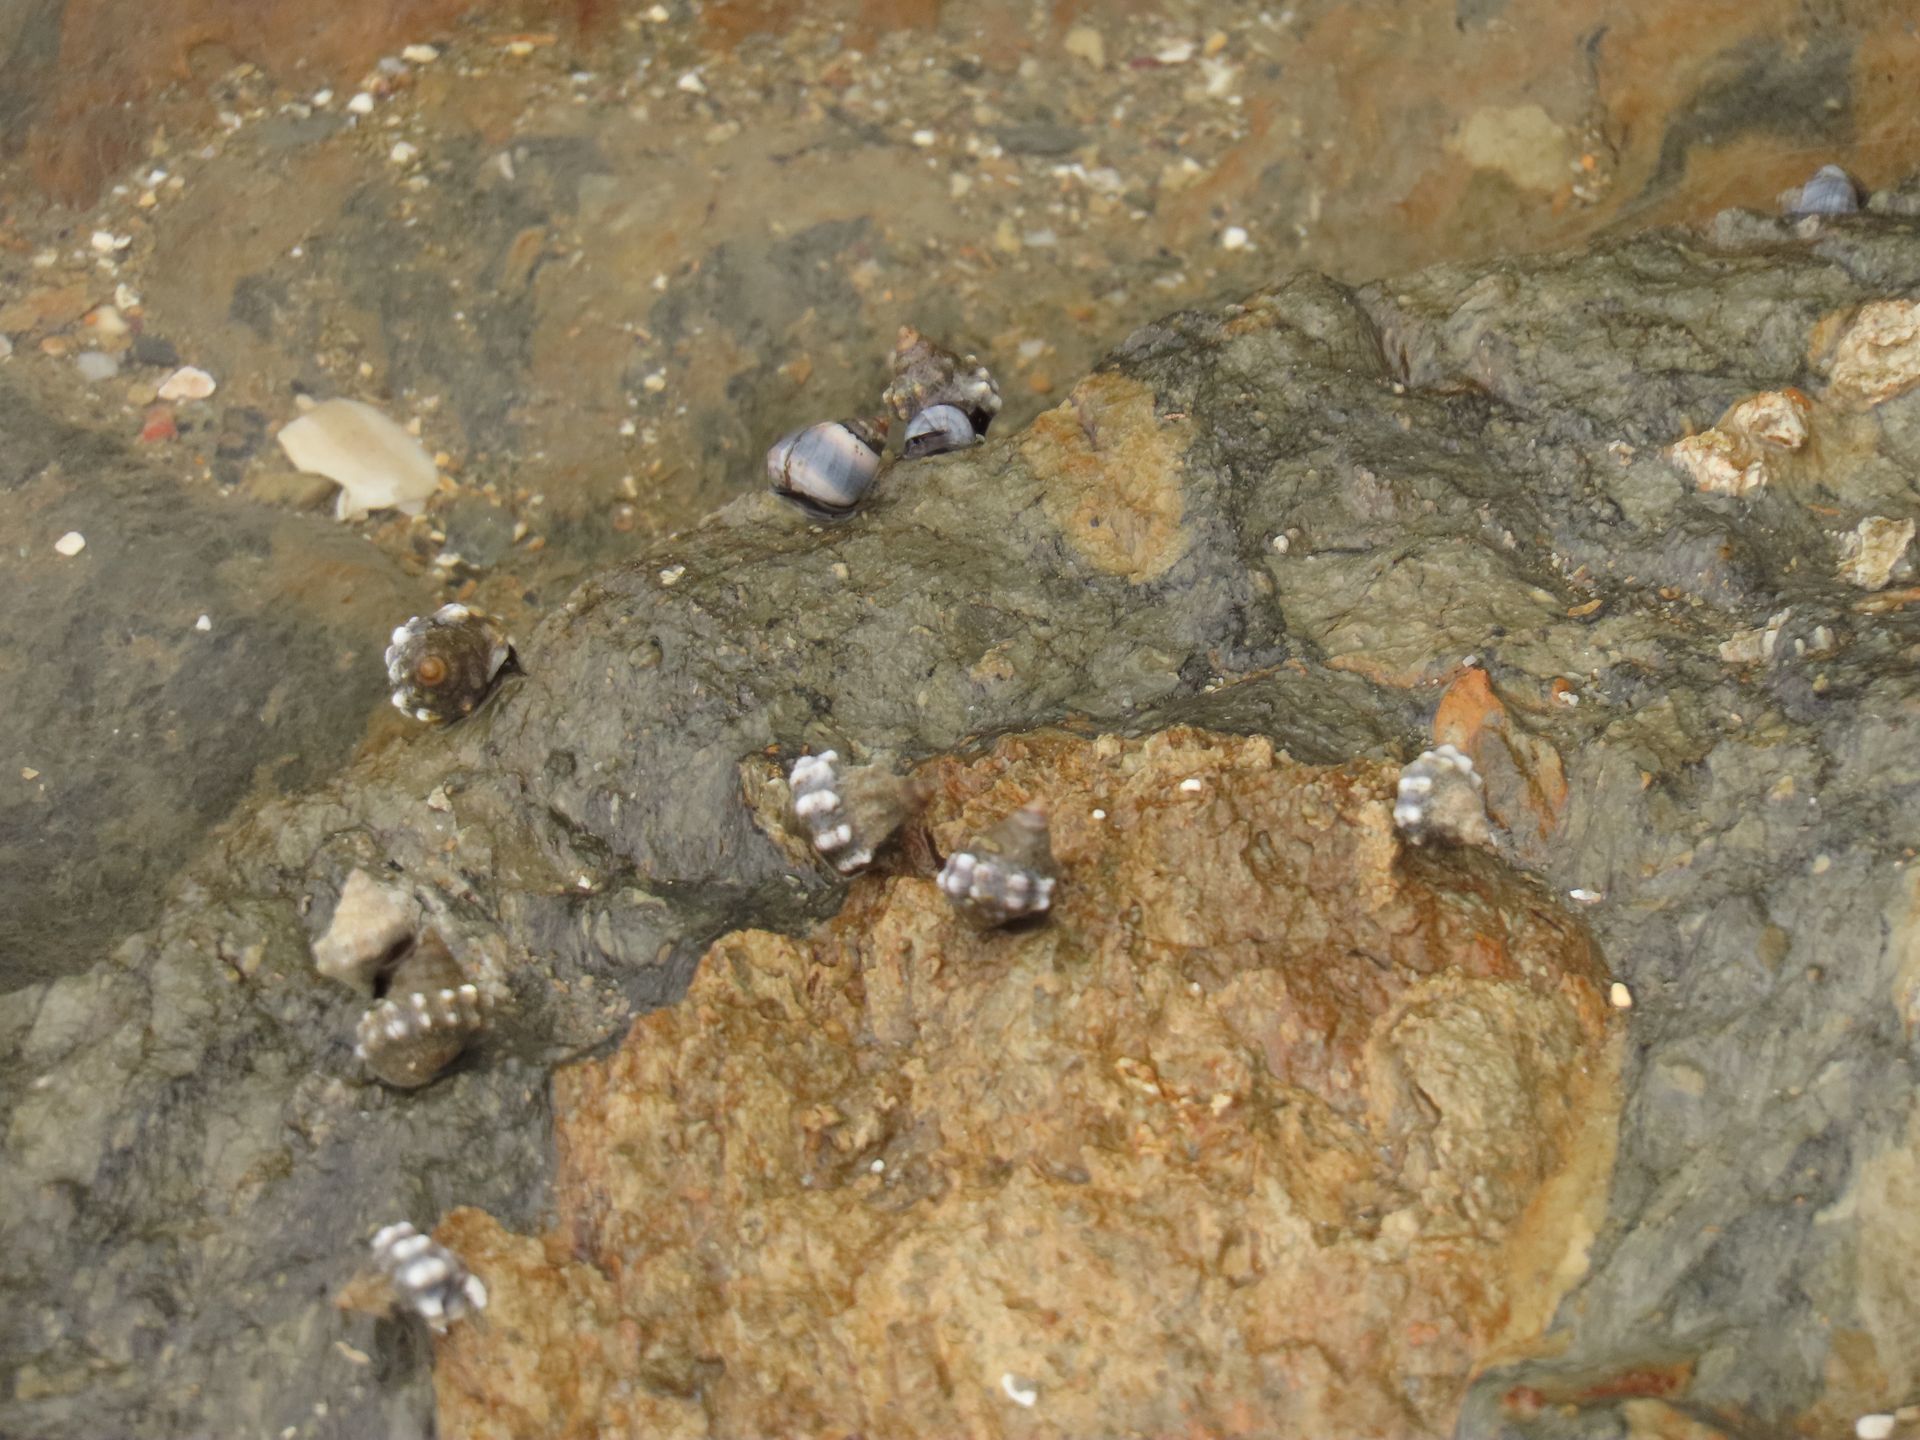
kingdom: Animalia
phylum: Mollusca
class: Gastropoda
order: Littorinimorpha
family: Littorinidae
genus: Nodilittorina
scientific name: Nodilittorina pyramidalis
